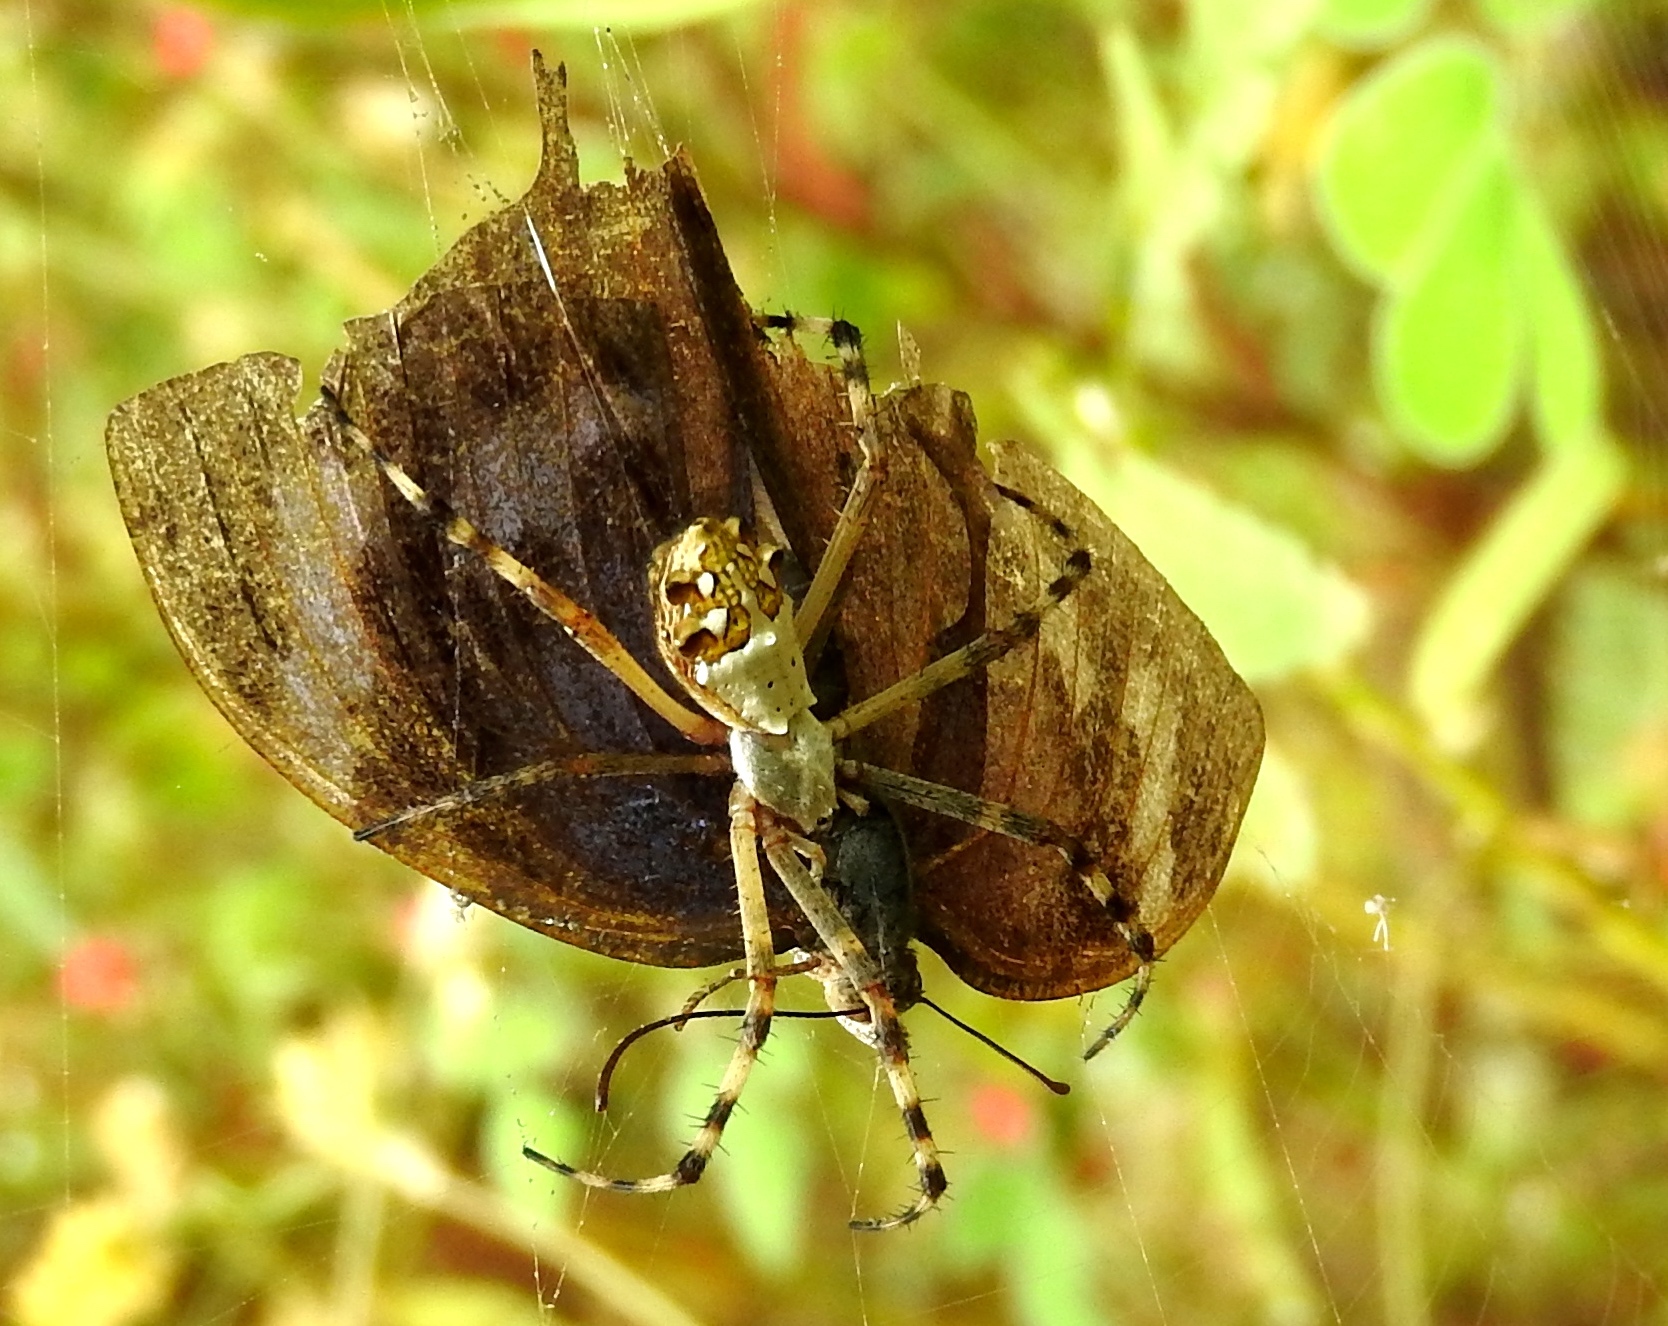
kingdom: Animalia
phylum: Arthropoda
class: Arachnida
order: Araneae
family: Araneidae
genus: Argiope
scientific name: Argiope argentata
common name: Orb weavers
